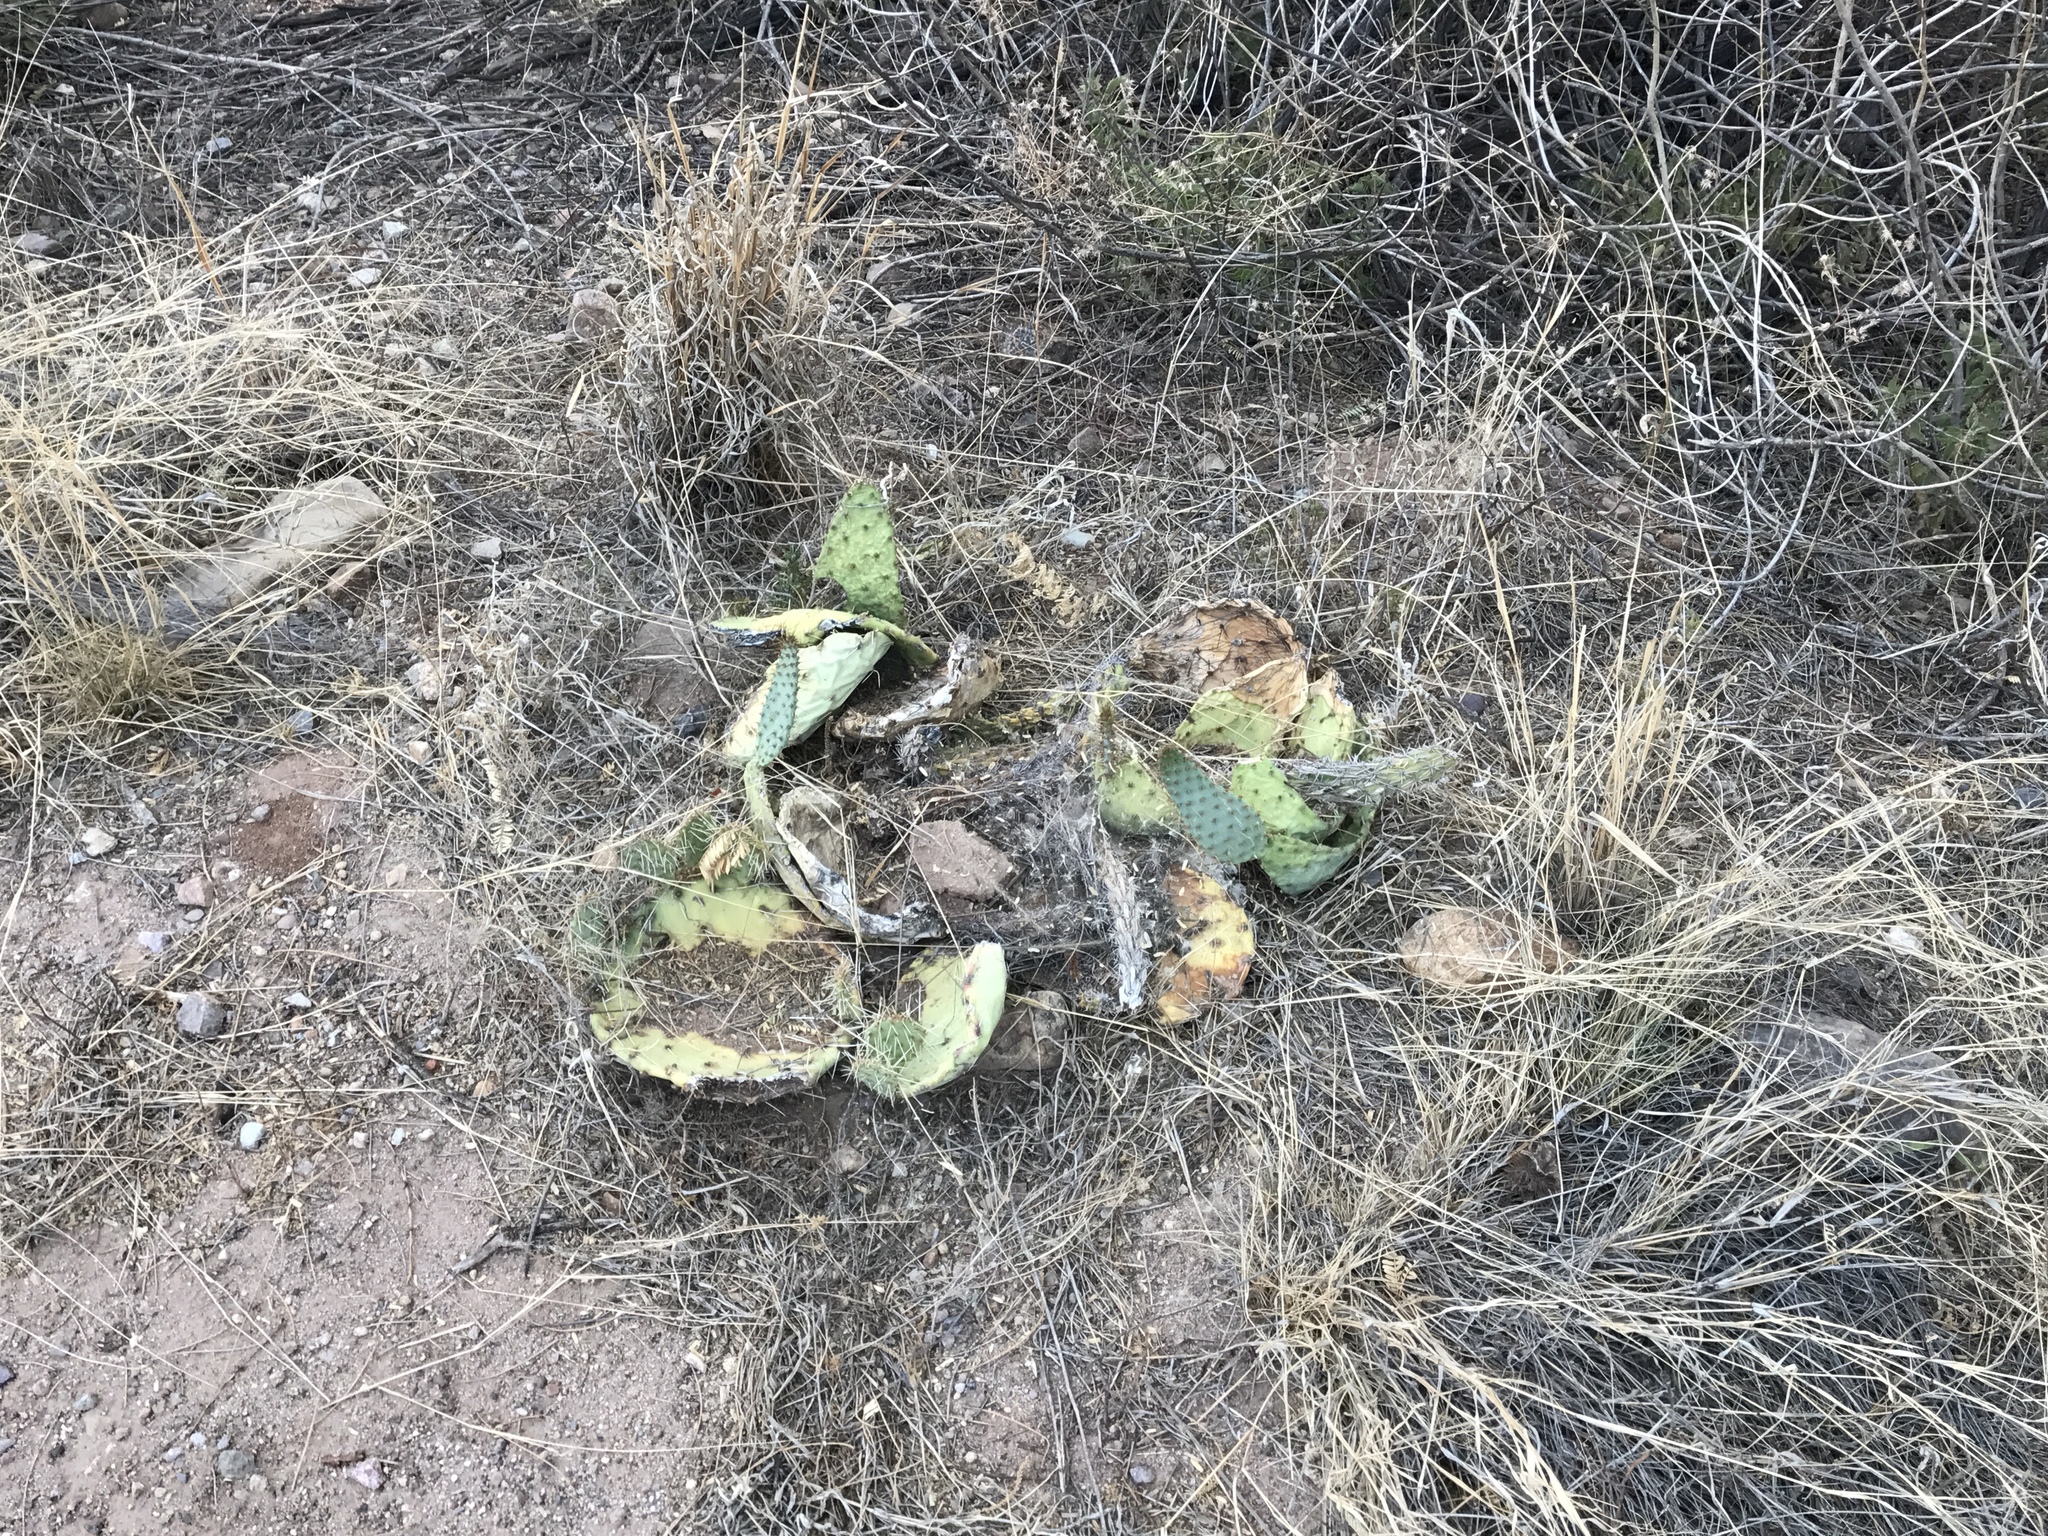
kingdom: Plantae
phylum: Tracheophyta
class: Magnoliopsida
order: Caryophyllales
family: Cactaceae
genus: Opuntia
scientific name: Opuntia engelmannii
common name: Cactus-apple
